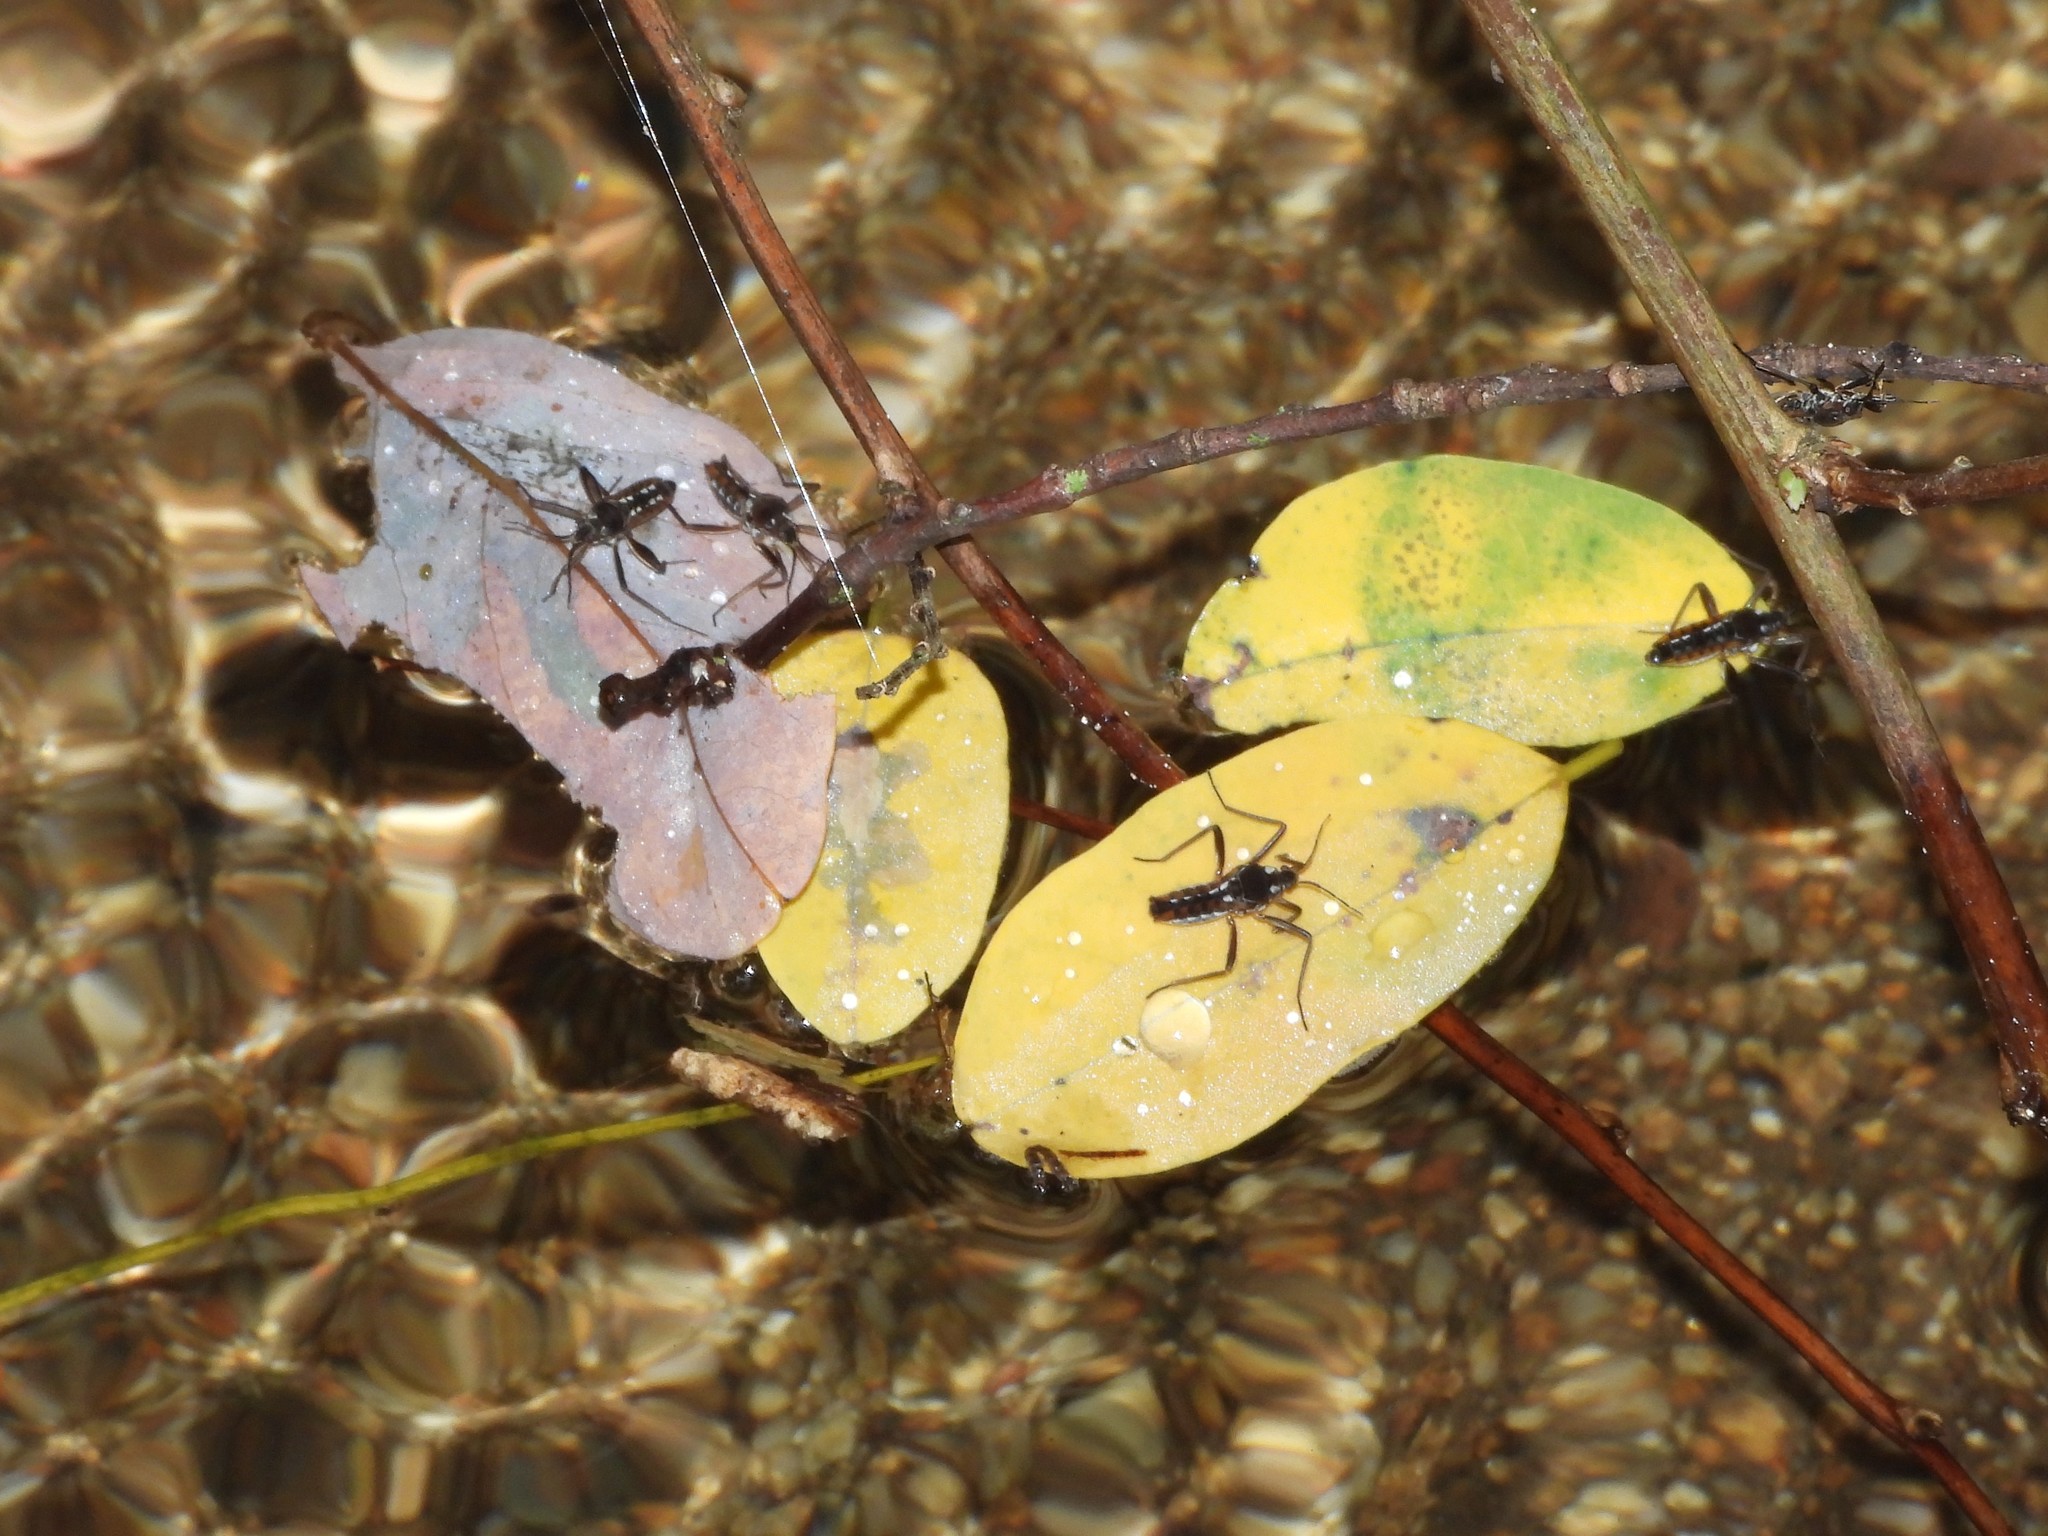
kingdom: Animalia
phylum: Arthropoda
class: Insecta
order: Hemiptera
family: Veliidae
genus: Velia
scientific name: Velia gridellii
